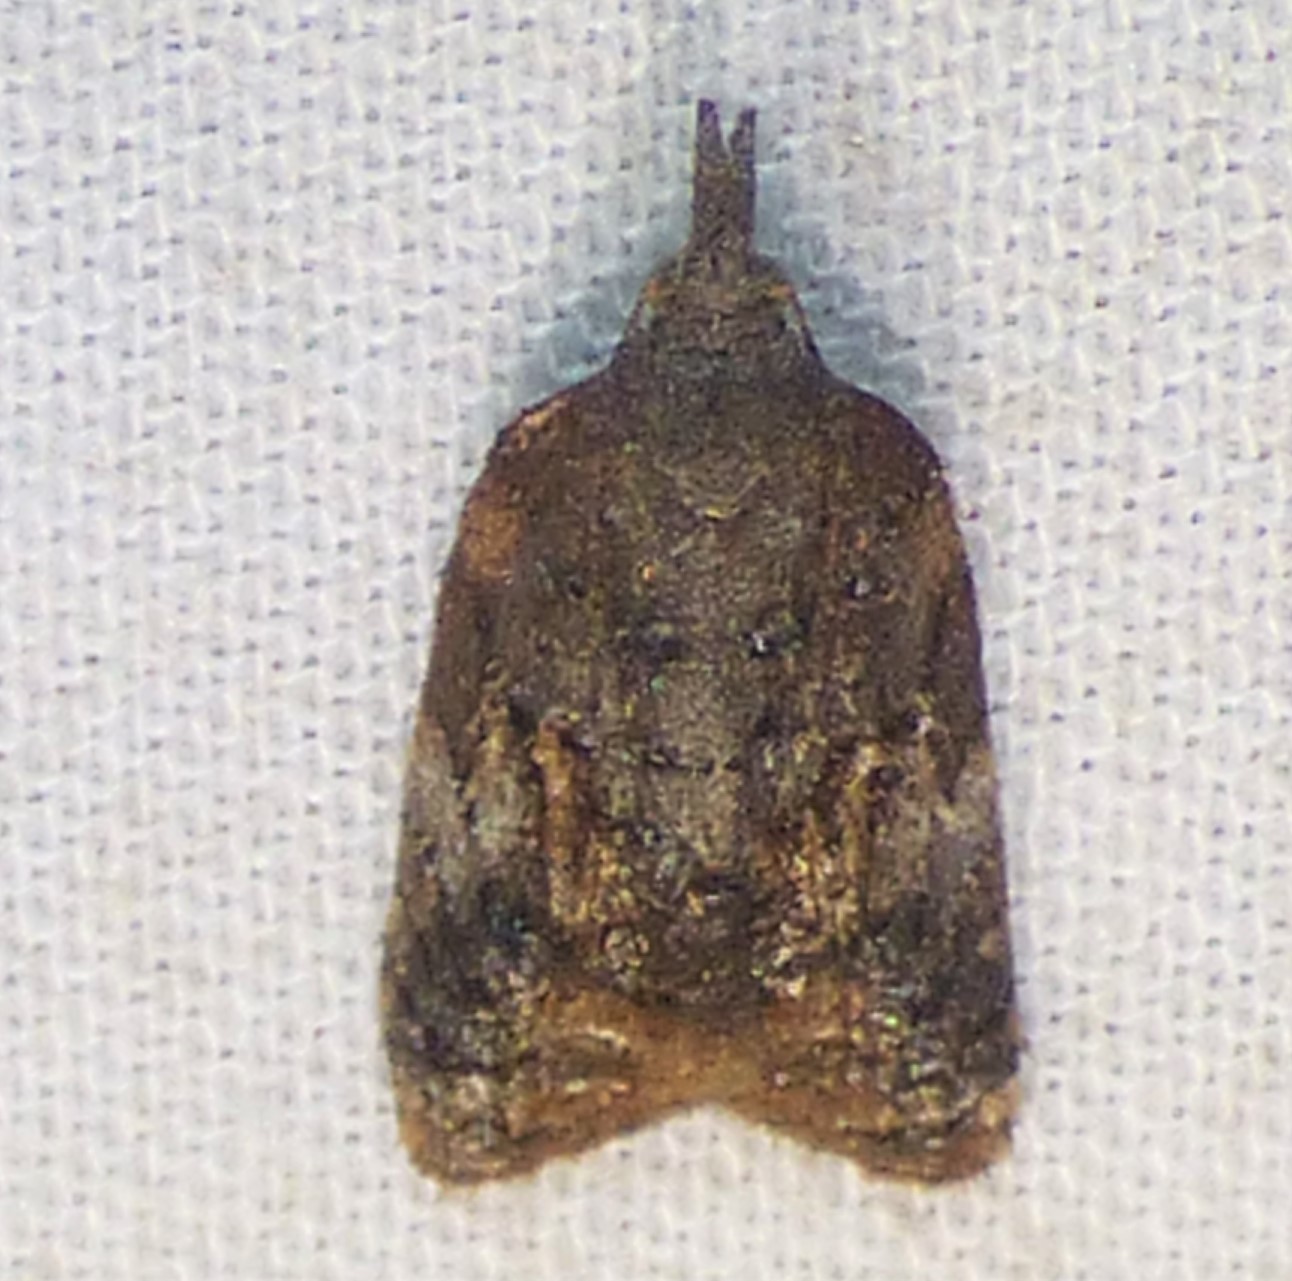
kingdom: Animalia
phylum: Arthropoda
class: Insecta
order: Lepidoptera
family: Tortricidae
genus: Platynota
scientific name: Platynota semiustana
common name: Singed platynota
